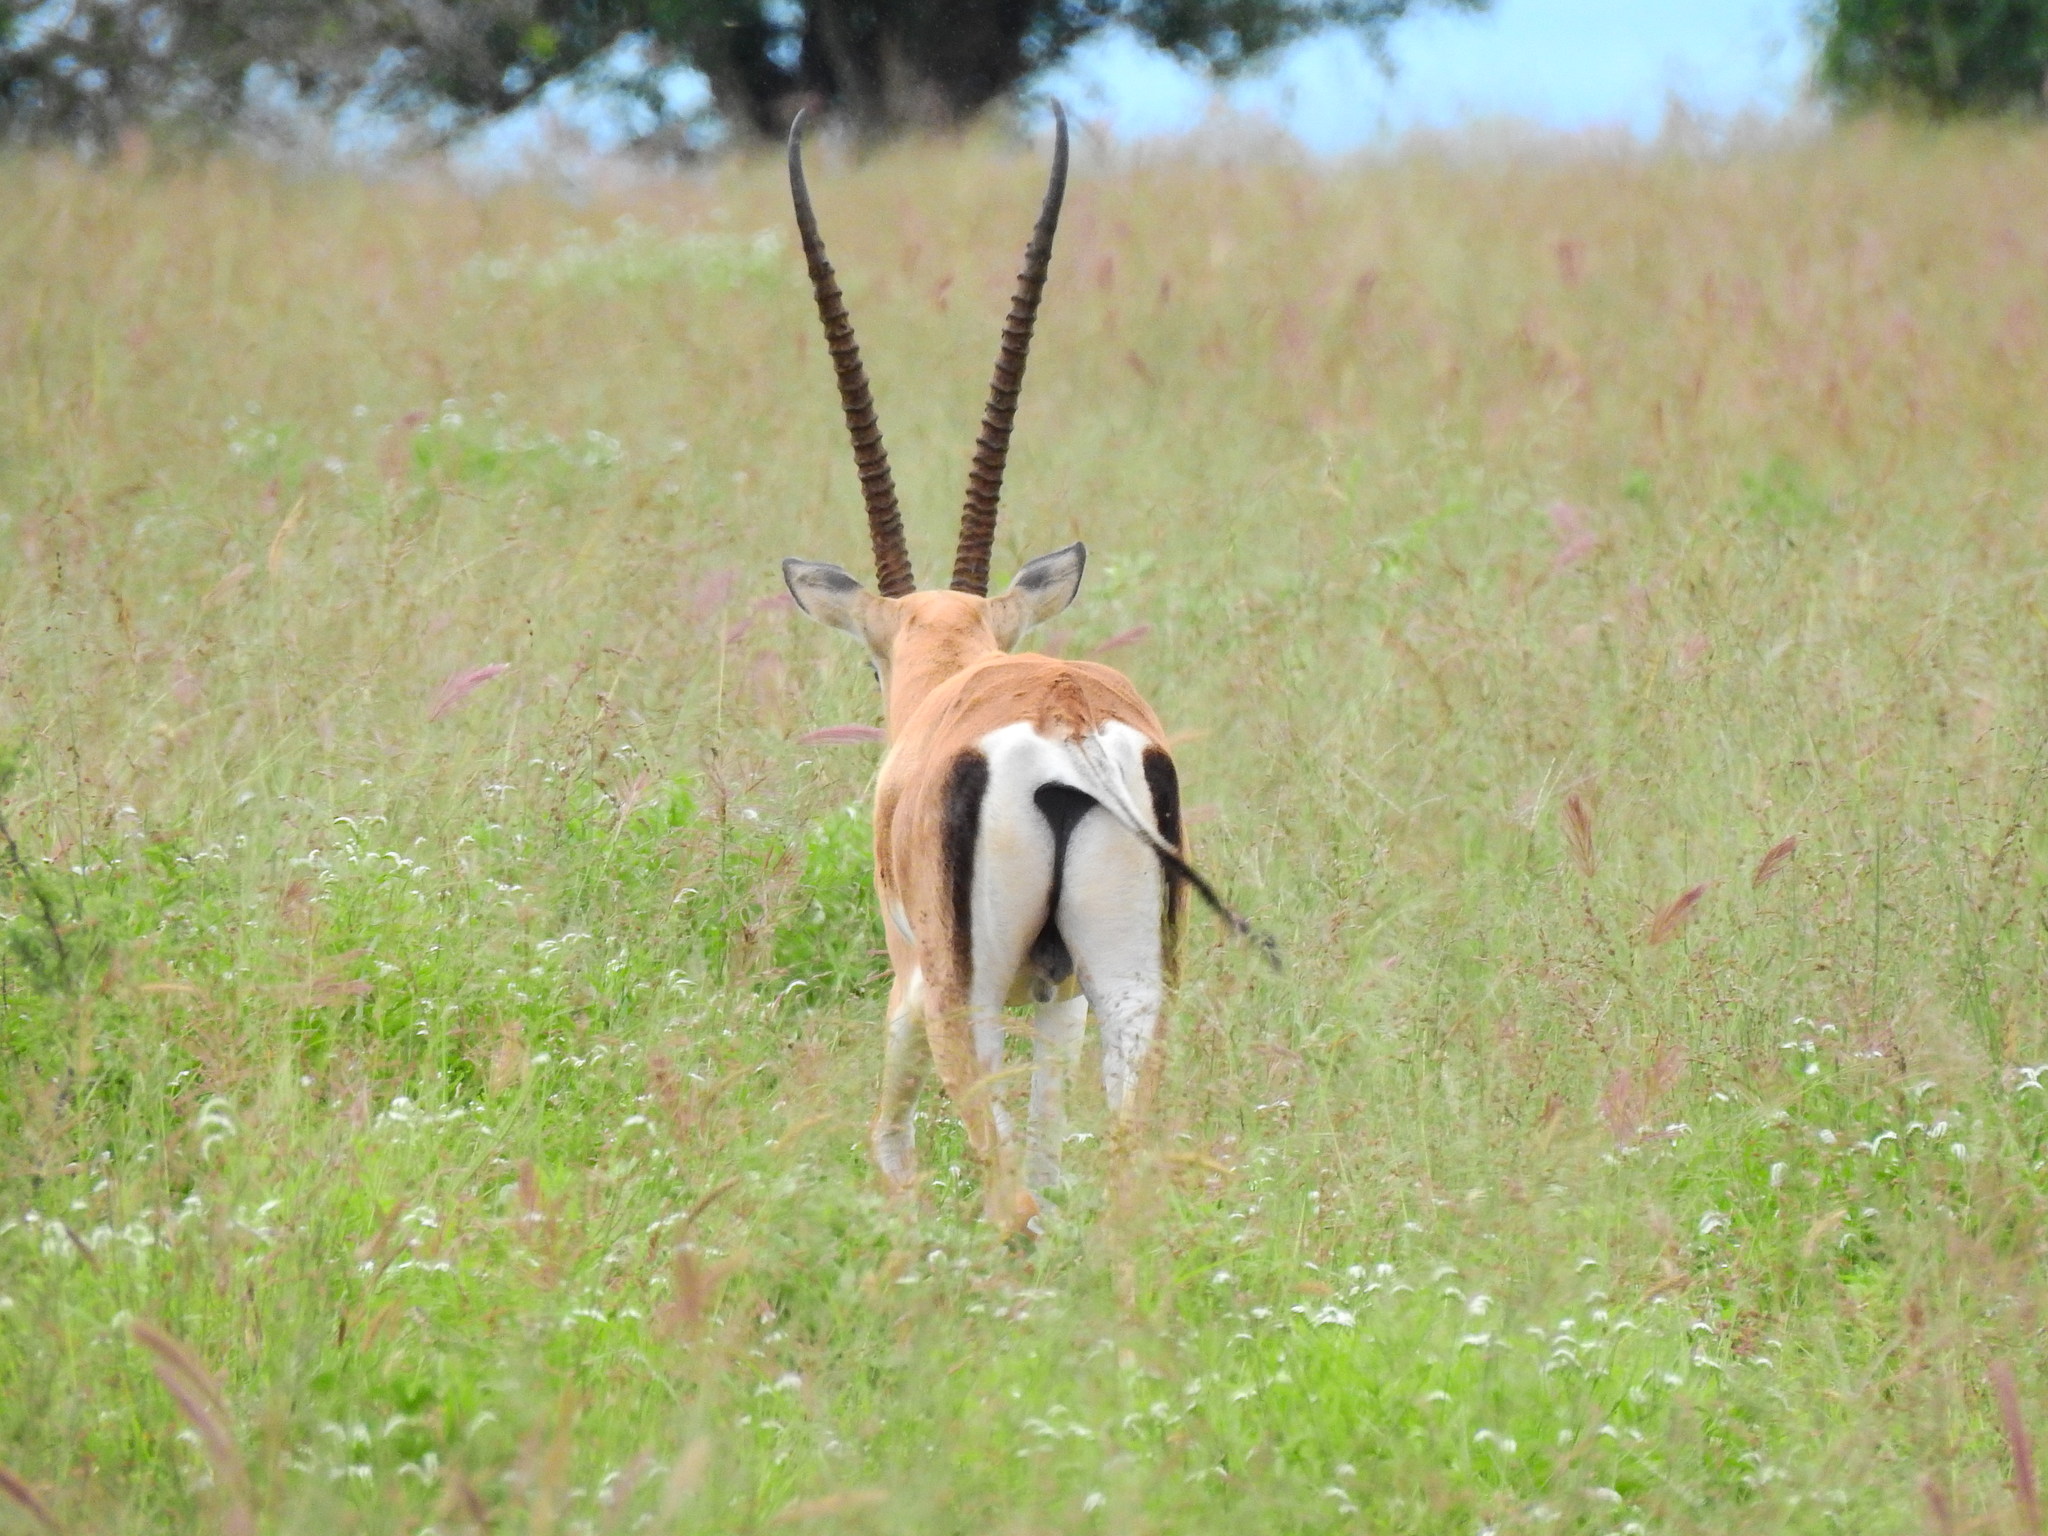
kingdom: Animalia
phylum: Chordata
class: Mammalia
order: Artiodactyla
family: Bovidae
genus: Nanger
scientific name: Nanger granti
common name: Grant's gazelle
